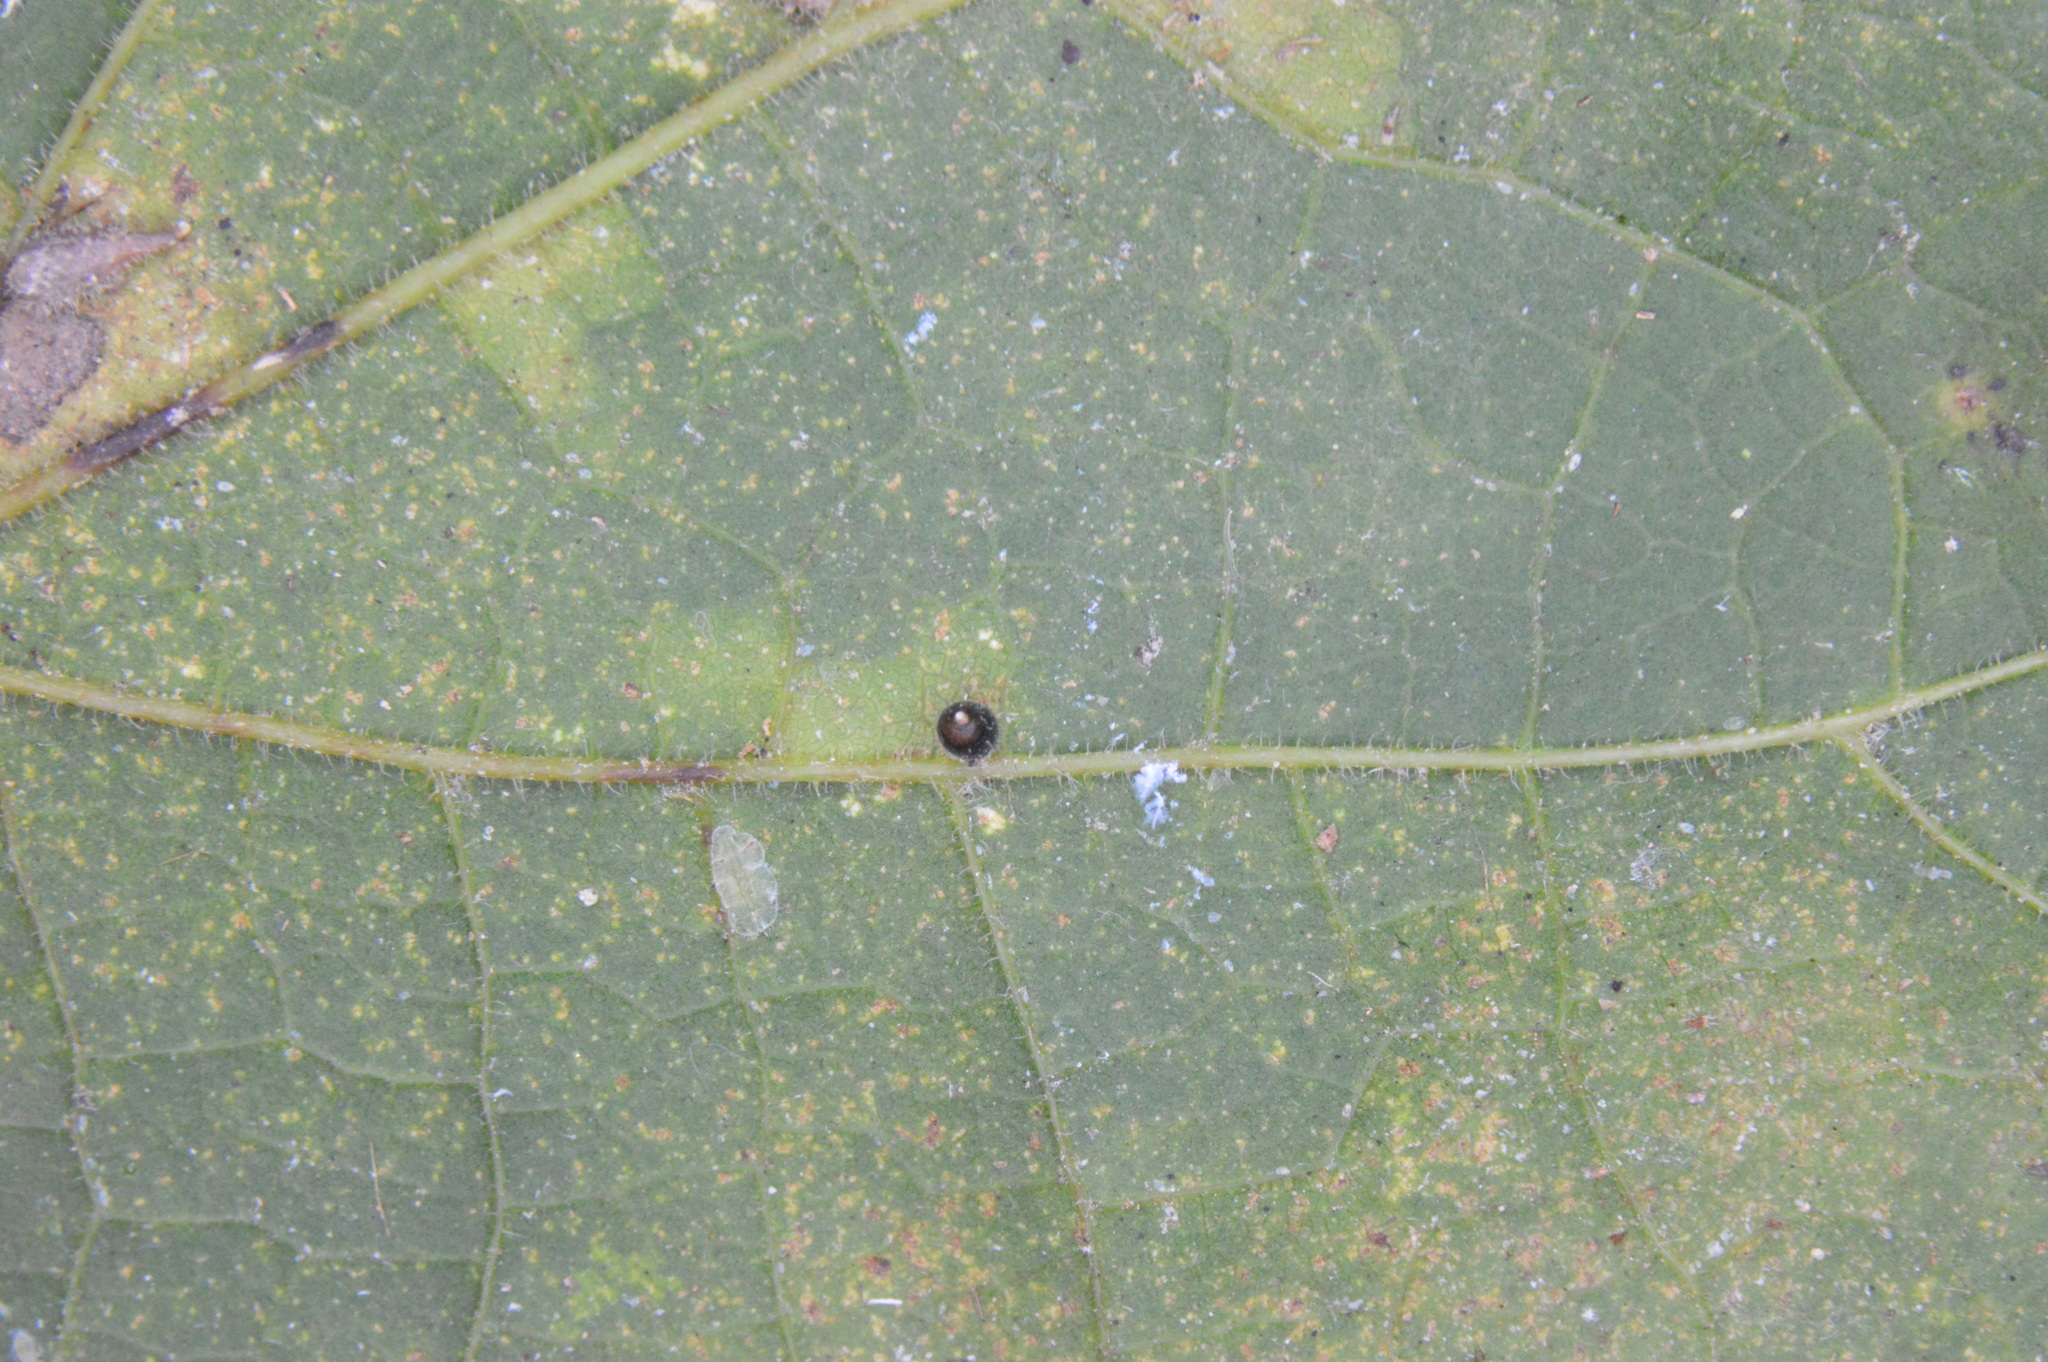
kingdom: Animalia
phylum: Arthropoda
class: Insecta
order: Diptera
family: Cecidomyiidae
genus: Celticecis
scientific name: Celticecis cupiformis
